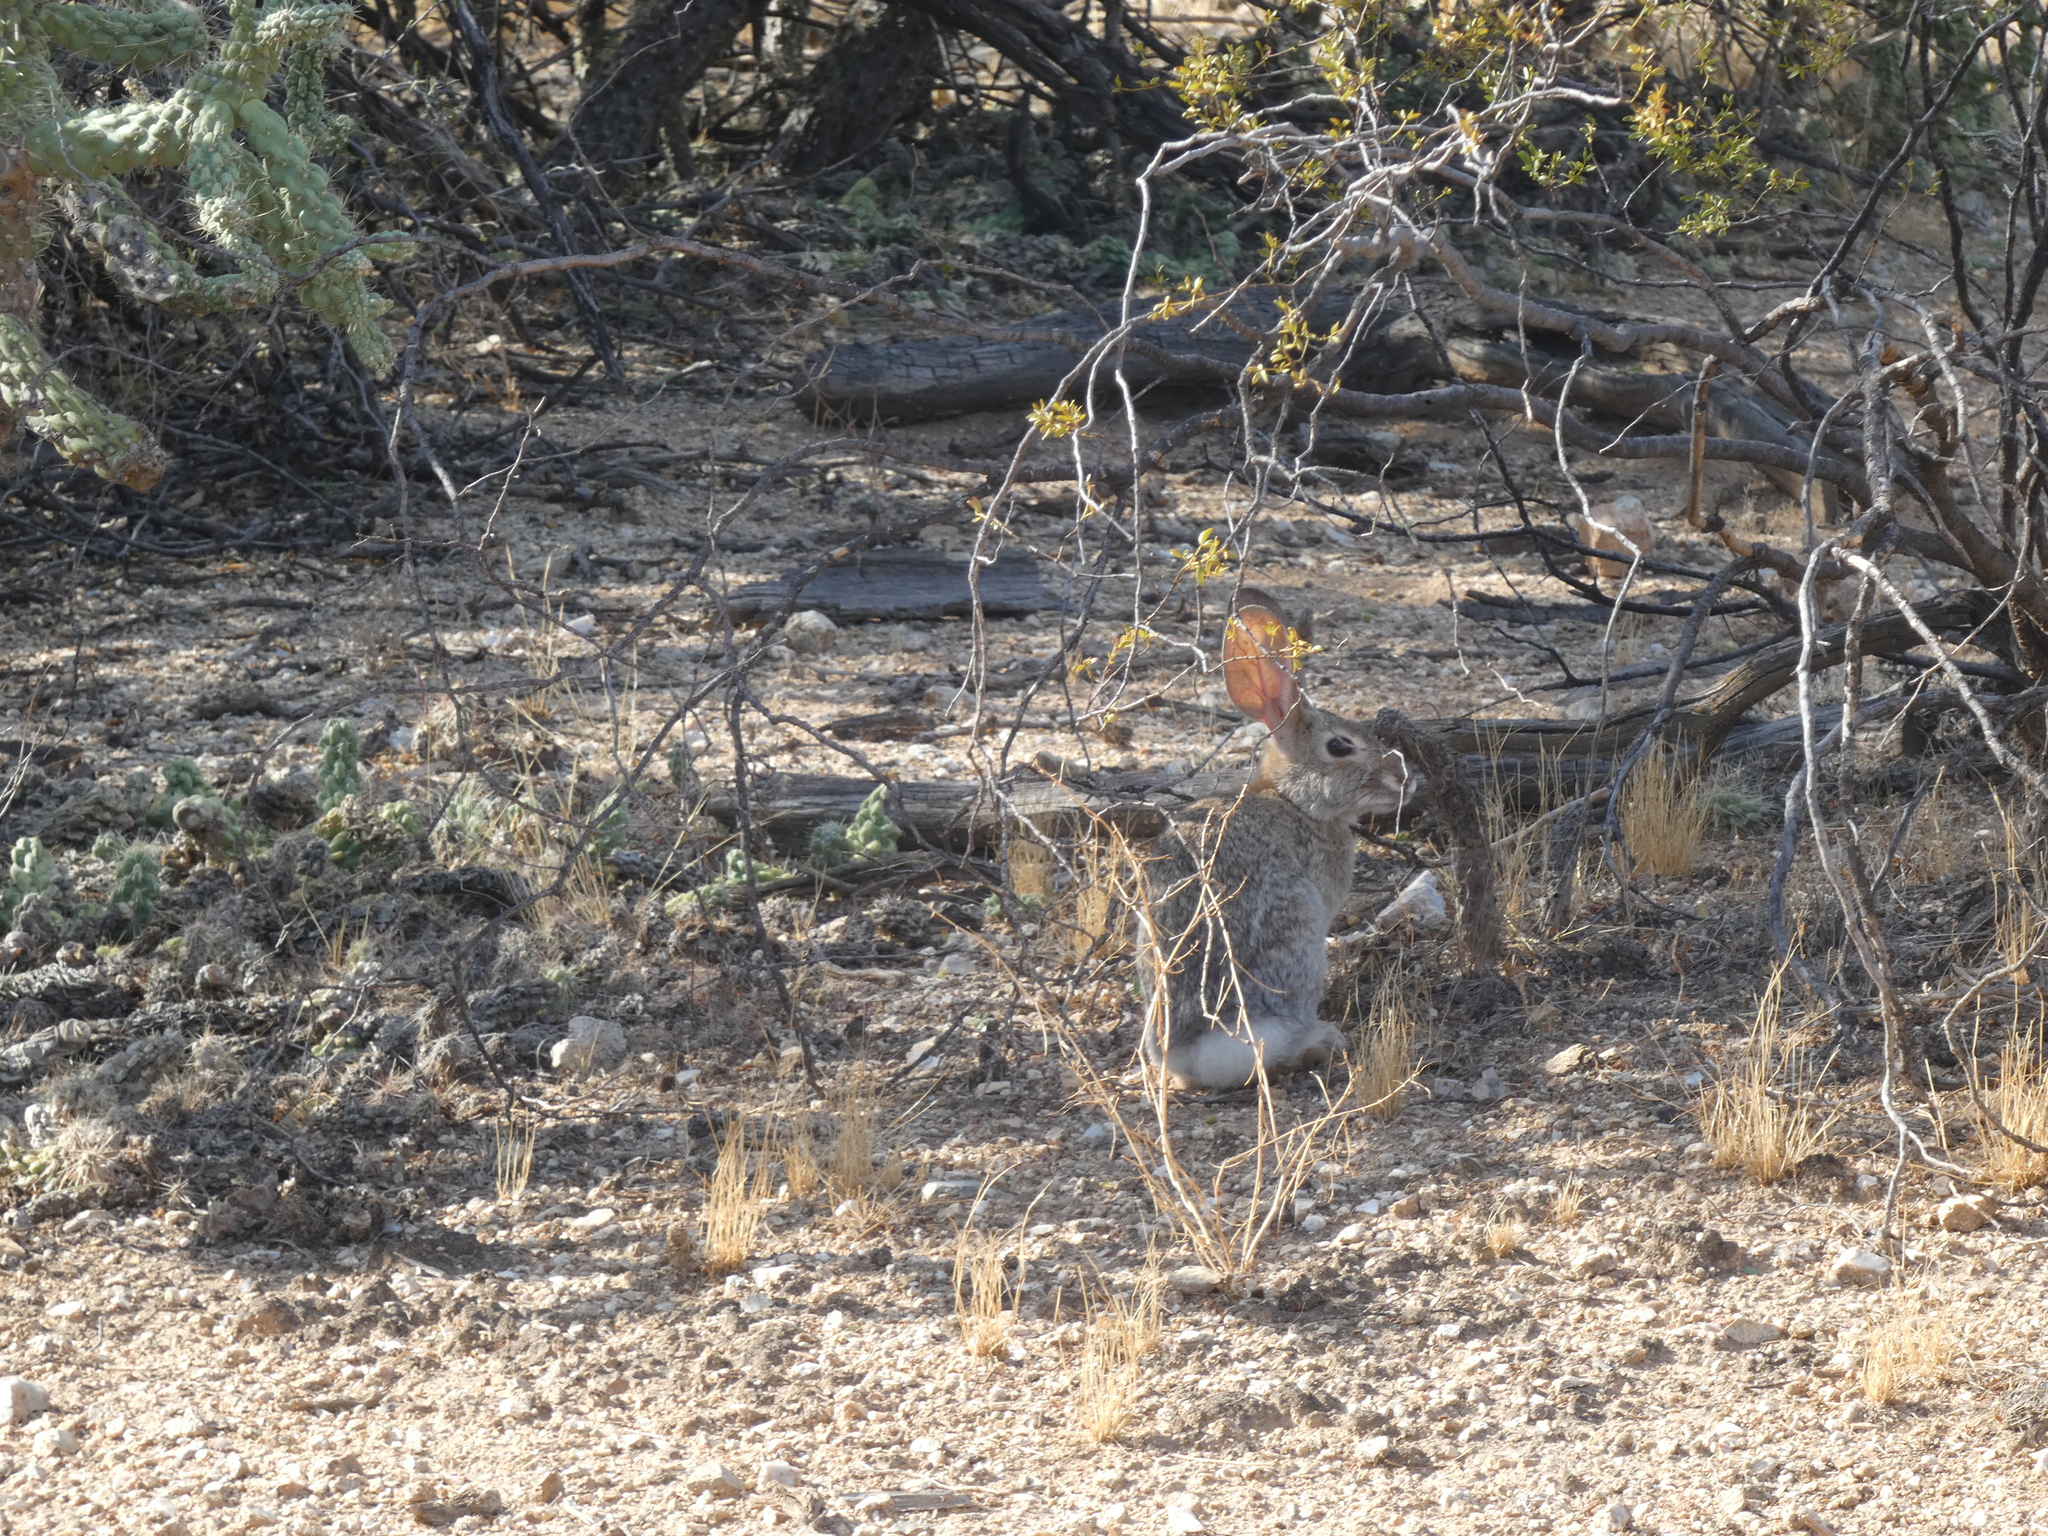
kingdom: Animalia
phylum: Chordata
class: Mammalia
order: Lagomorpha
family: Leporidae
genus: Sylvilagus
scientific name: Sylvilagus audubonii
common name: Desert cottontail
